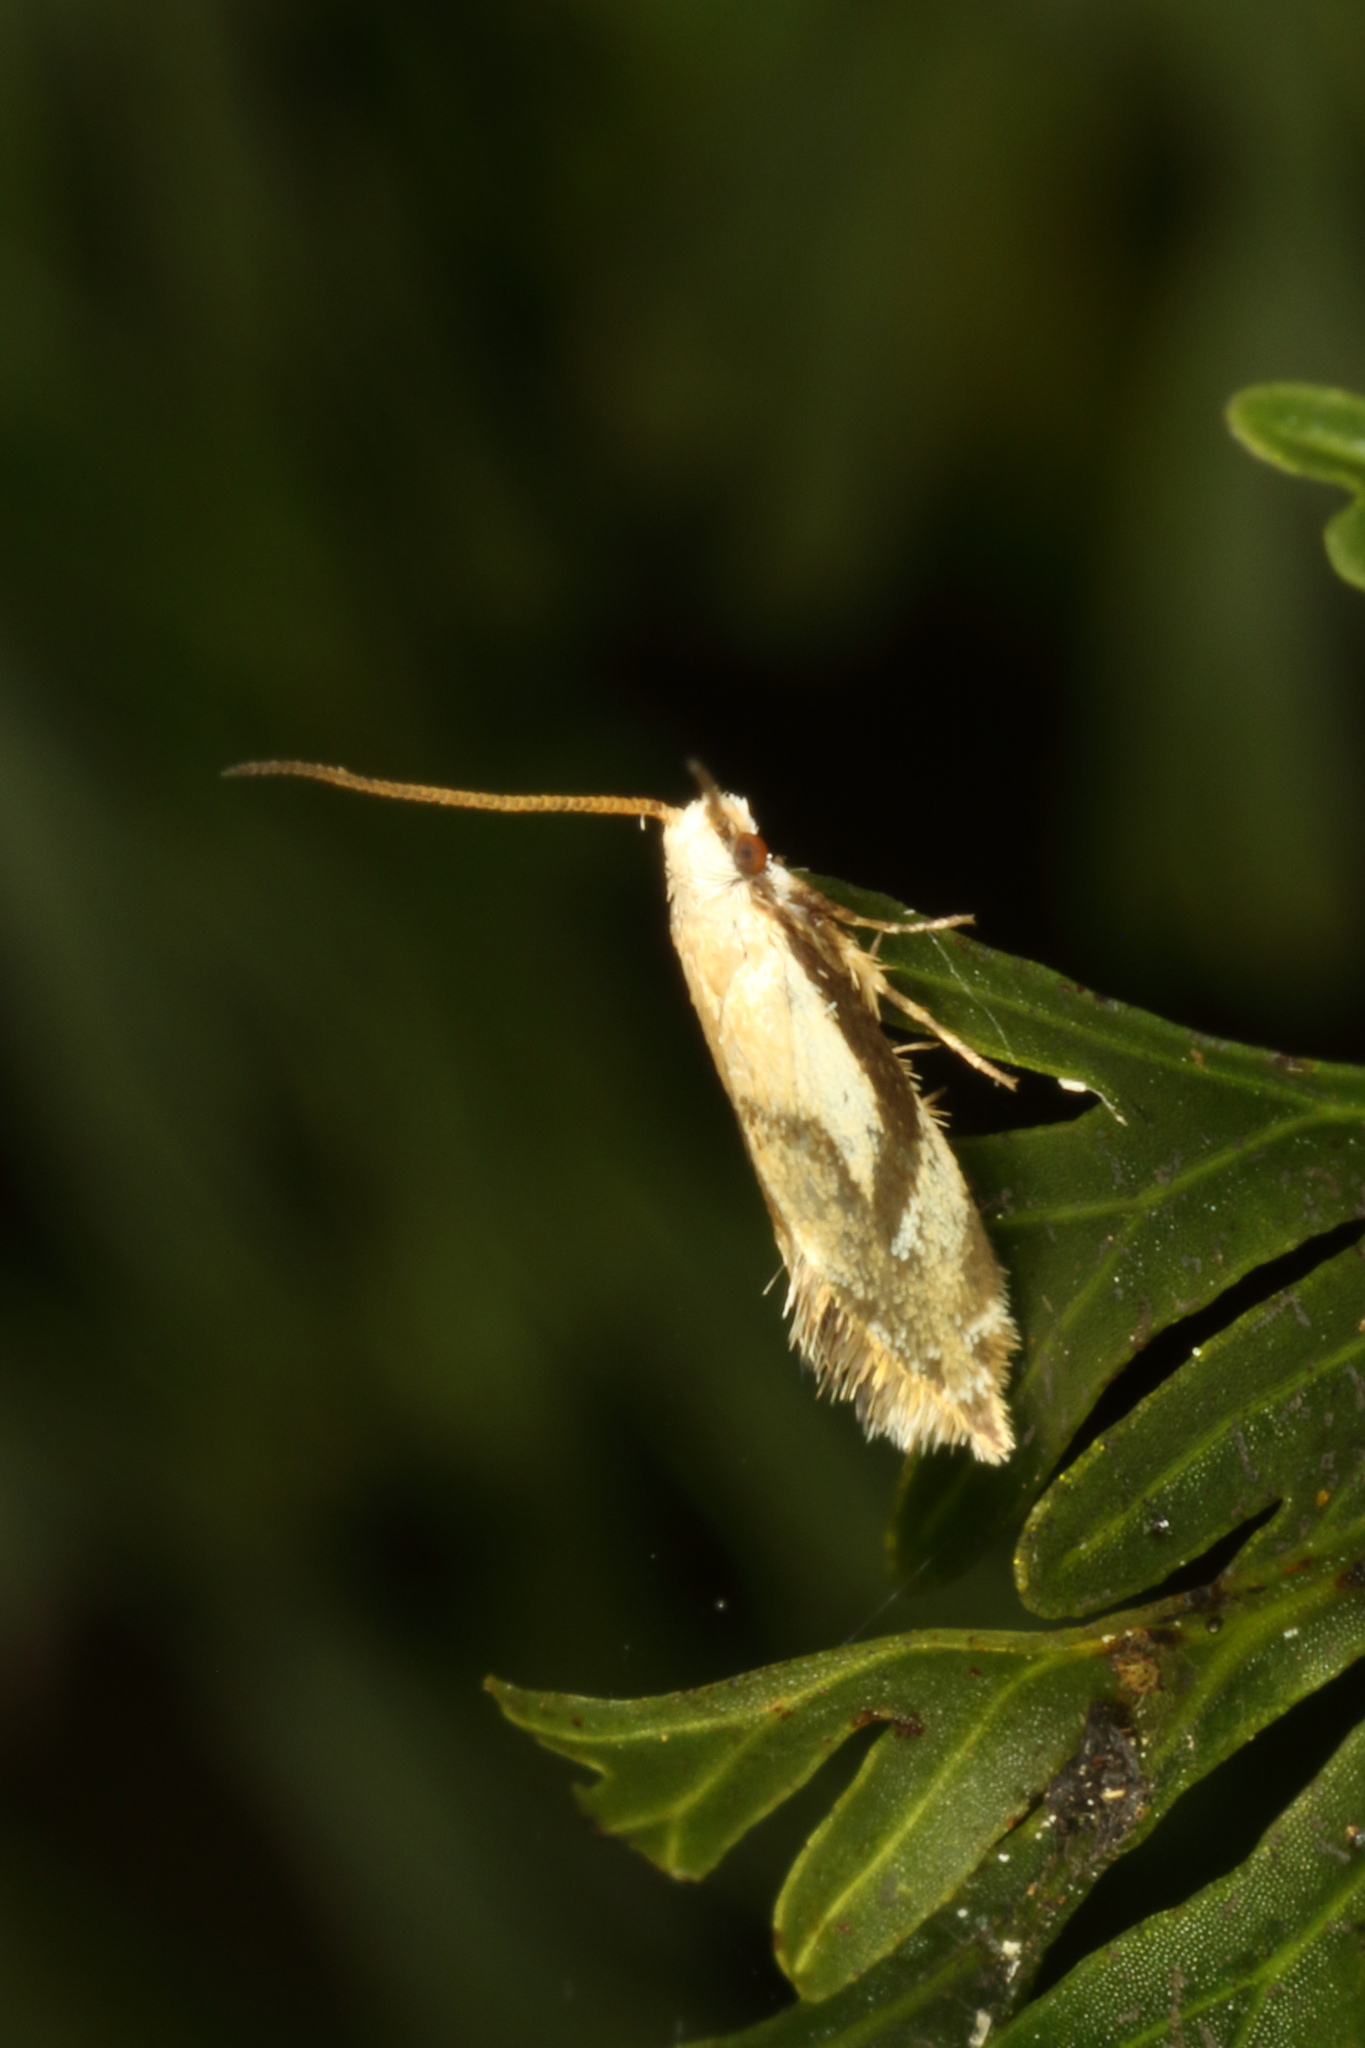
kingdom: Animalia
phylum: Arthropoda
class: Insecta
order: Lepidoptera
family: Mnesarchaeidae
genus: Mnesarchella
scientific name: Mnesarchella acuta
